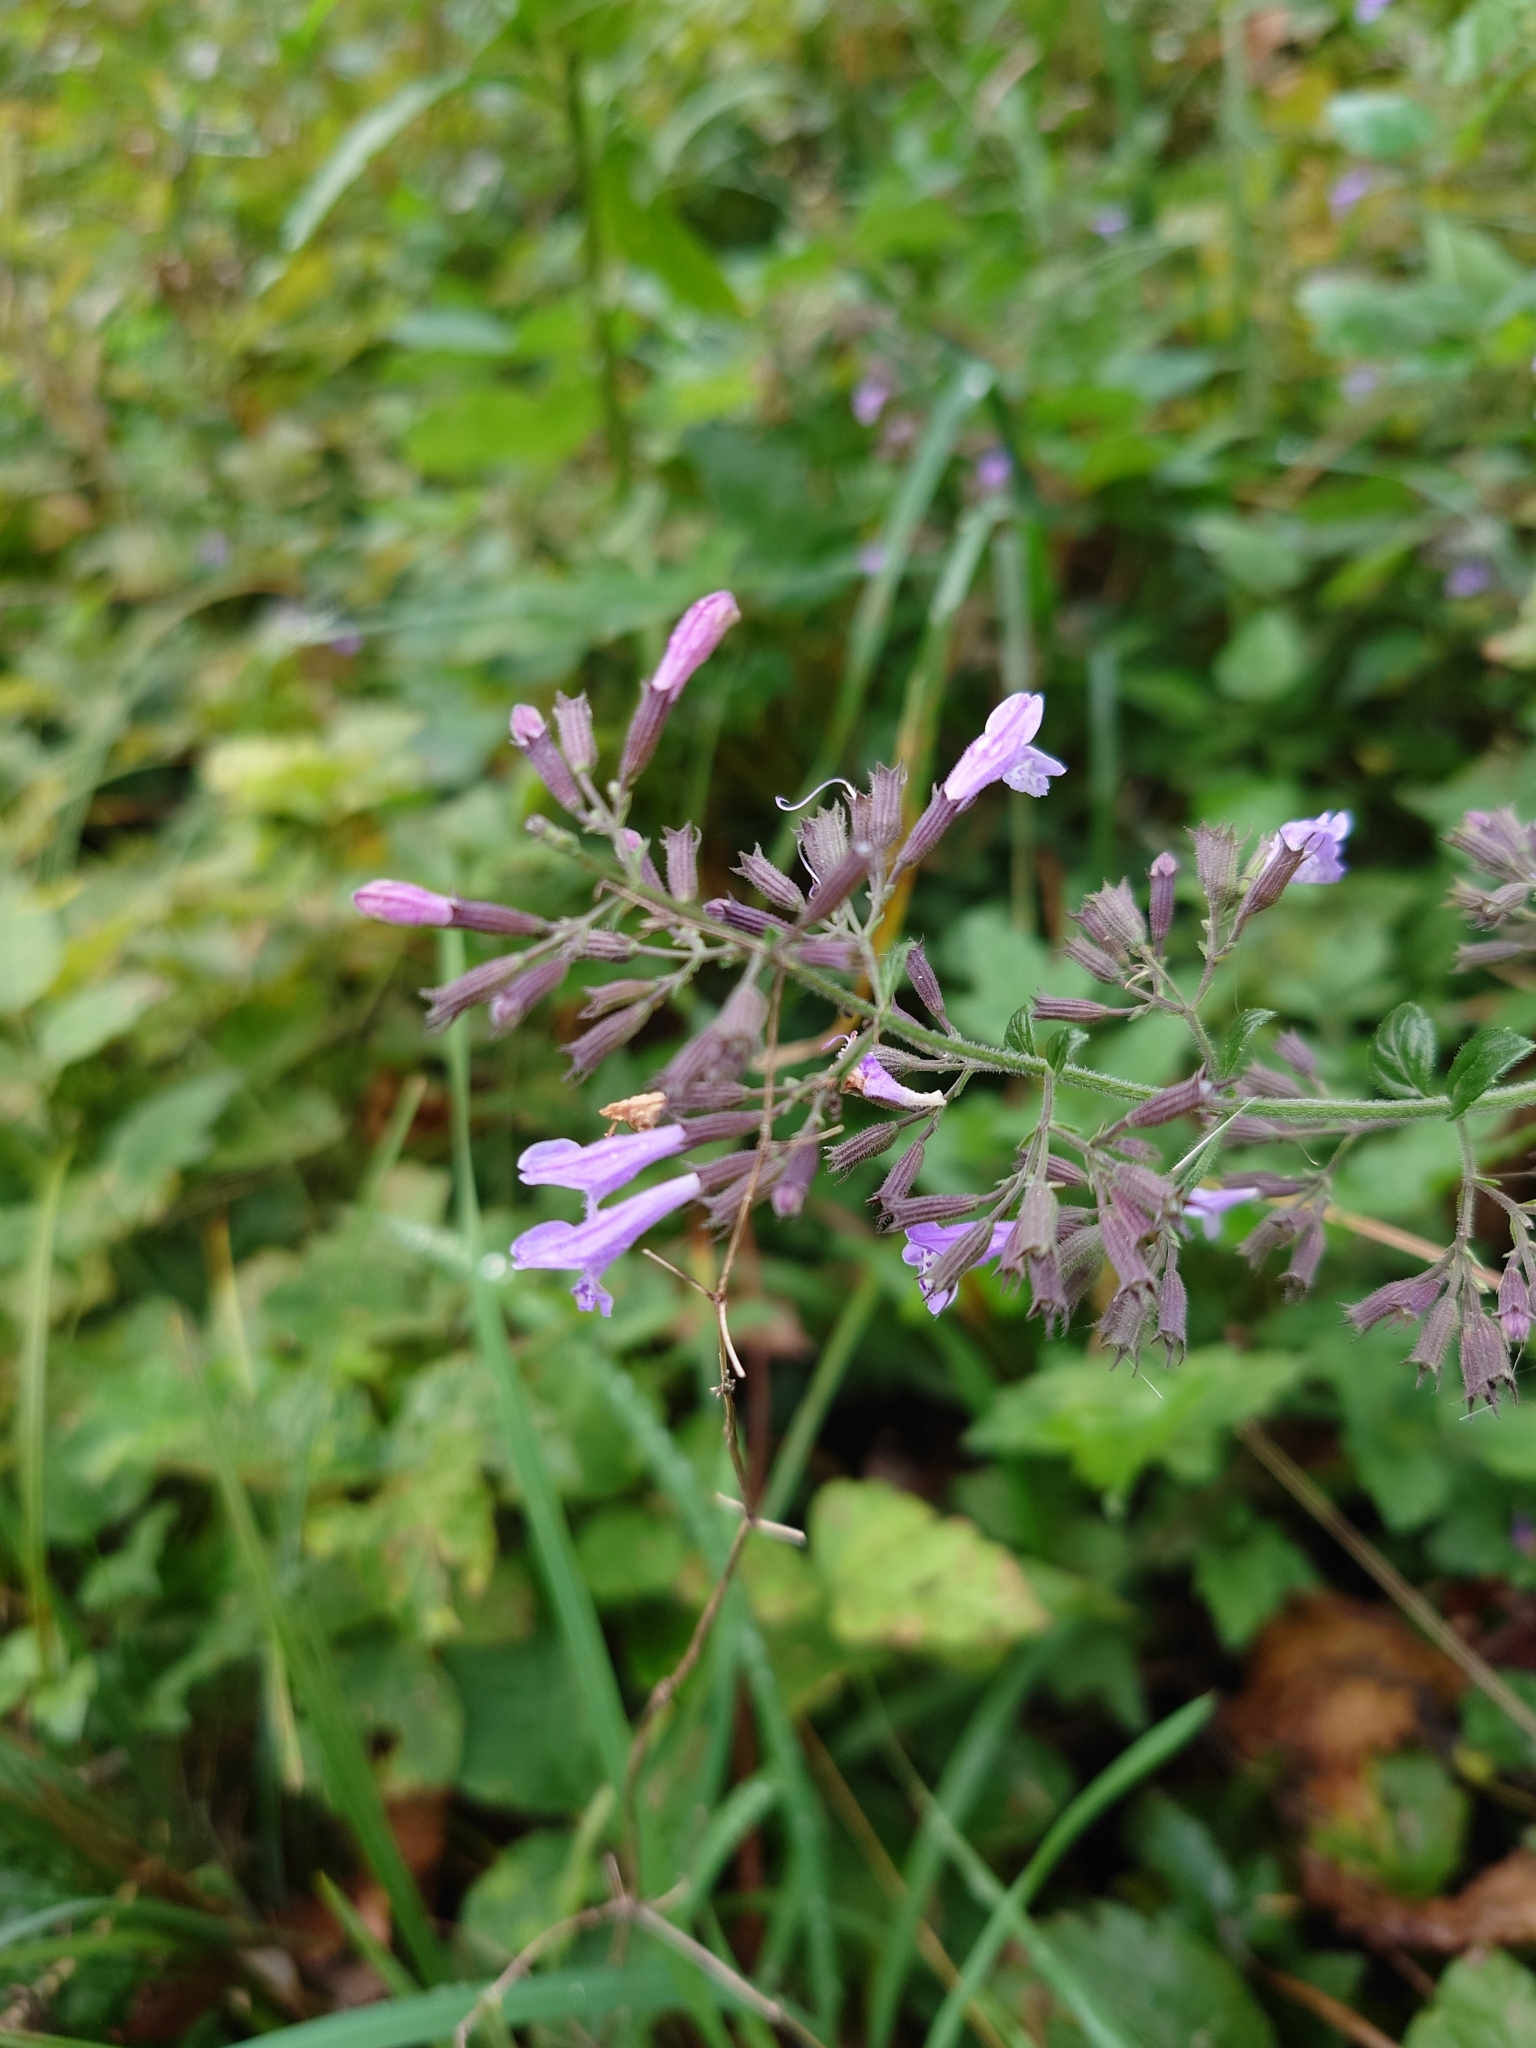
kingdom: Plantae
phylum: Tracheophyta
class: Magnoliopsida
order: Lamiales
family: Lamiaceae
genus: Clinopodium
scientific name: Clinopodium nepeta
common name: Lesser calamint
